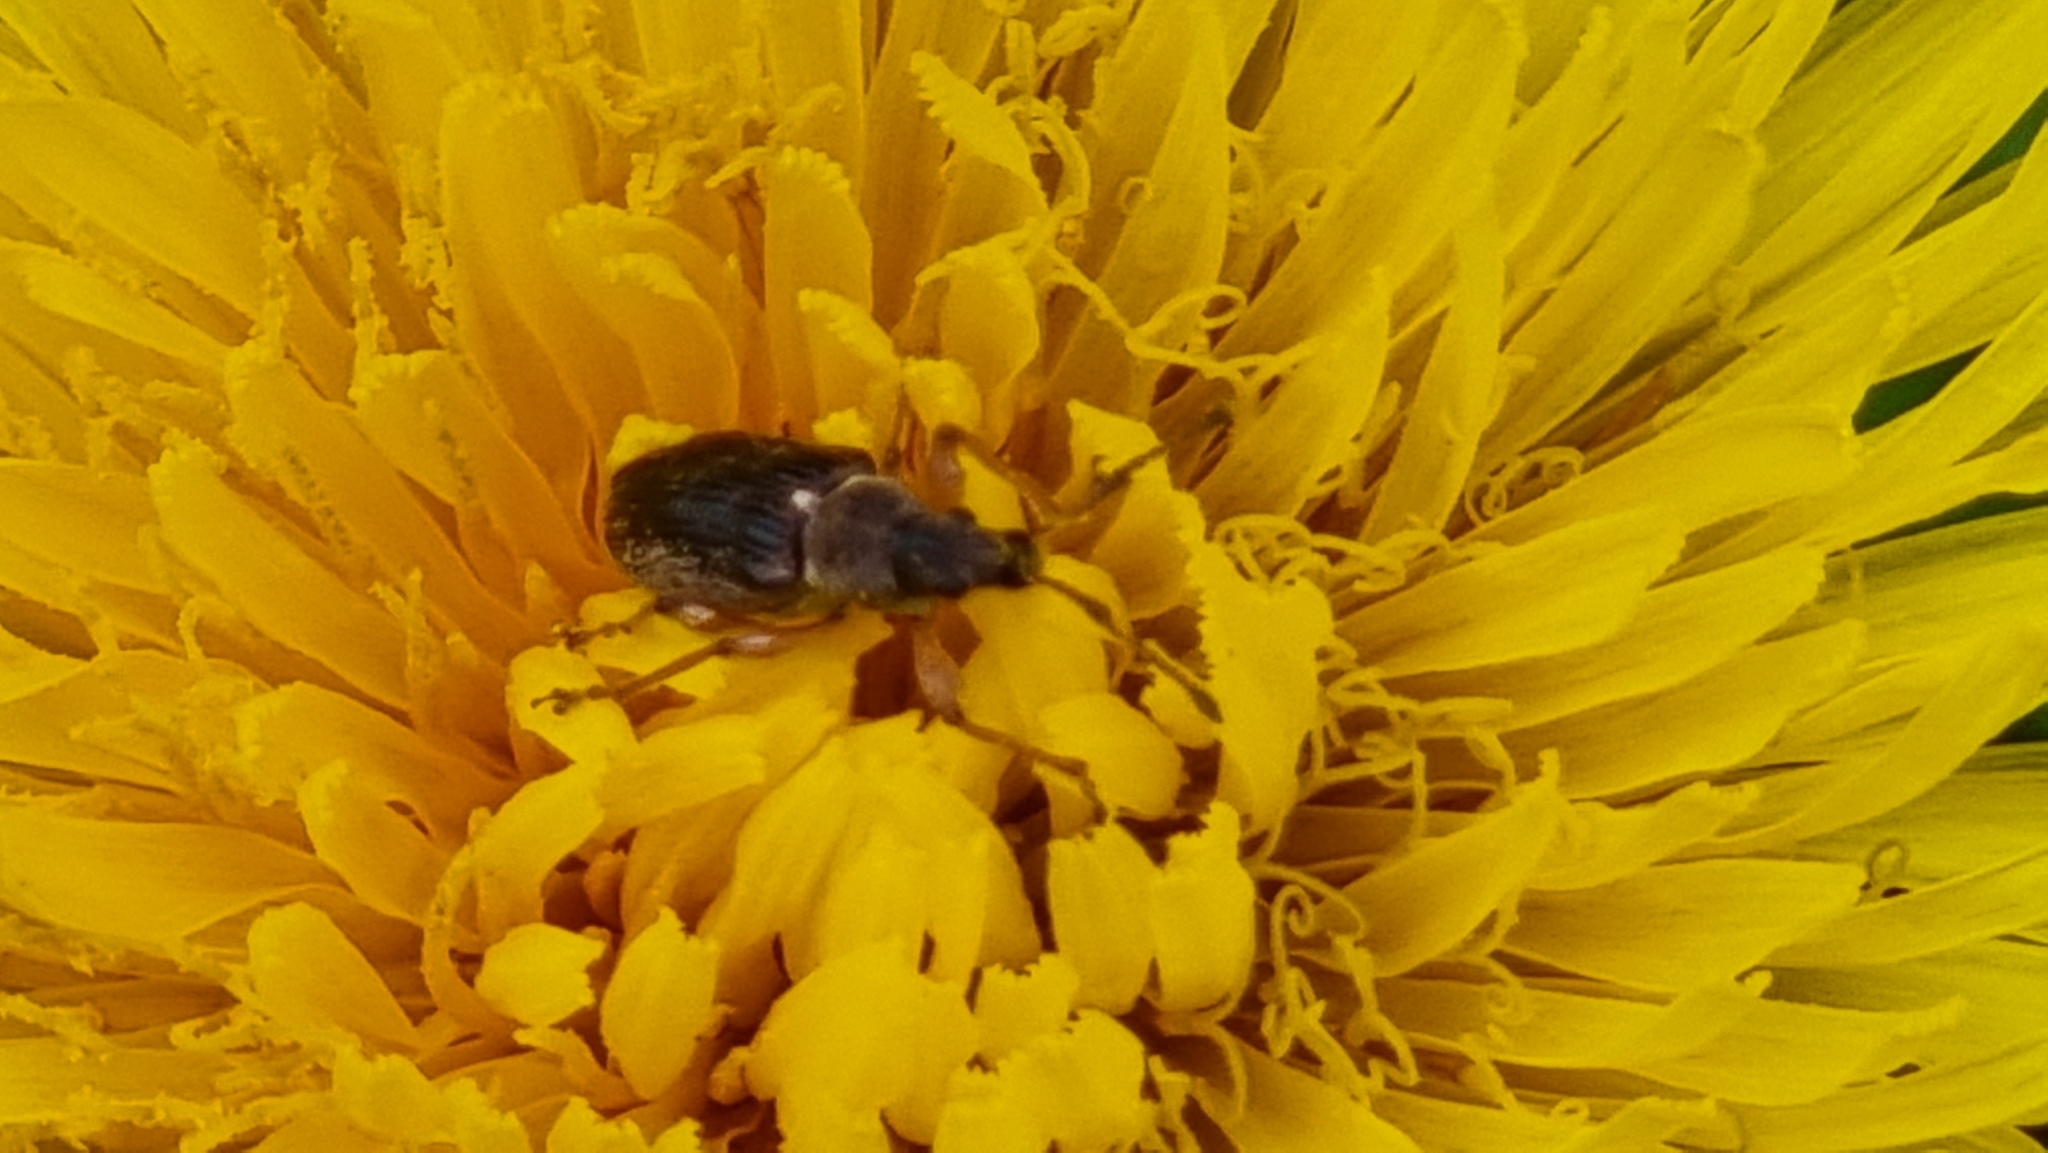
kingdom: Animalia
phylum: Arthropoda
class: Insecta
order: Coleoptera
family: Curculionidae
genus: Phyllobius
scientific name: Phyllobius pyri
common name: Common leaf weevil
